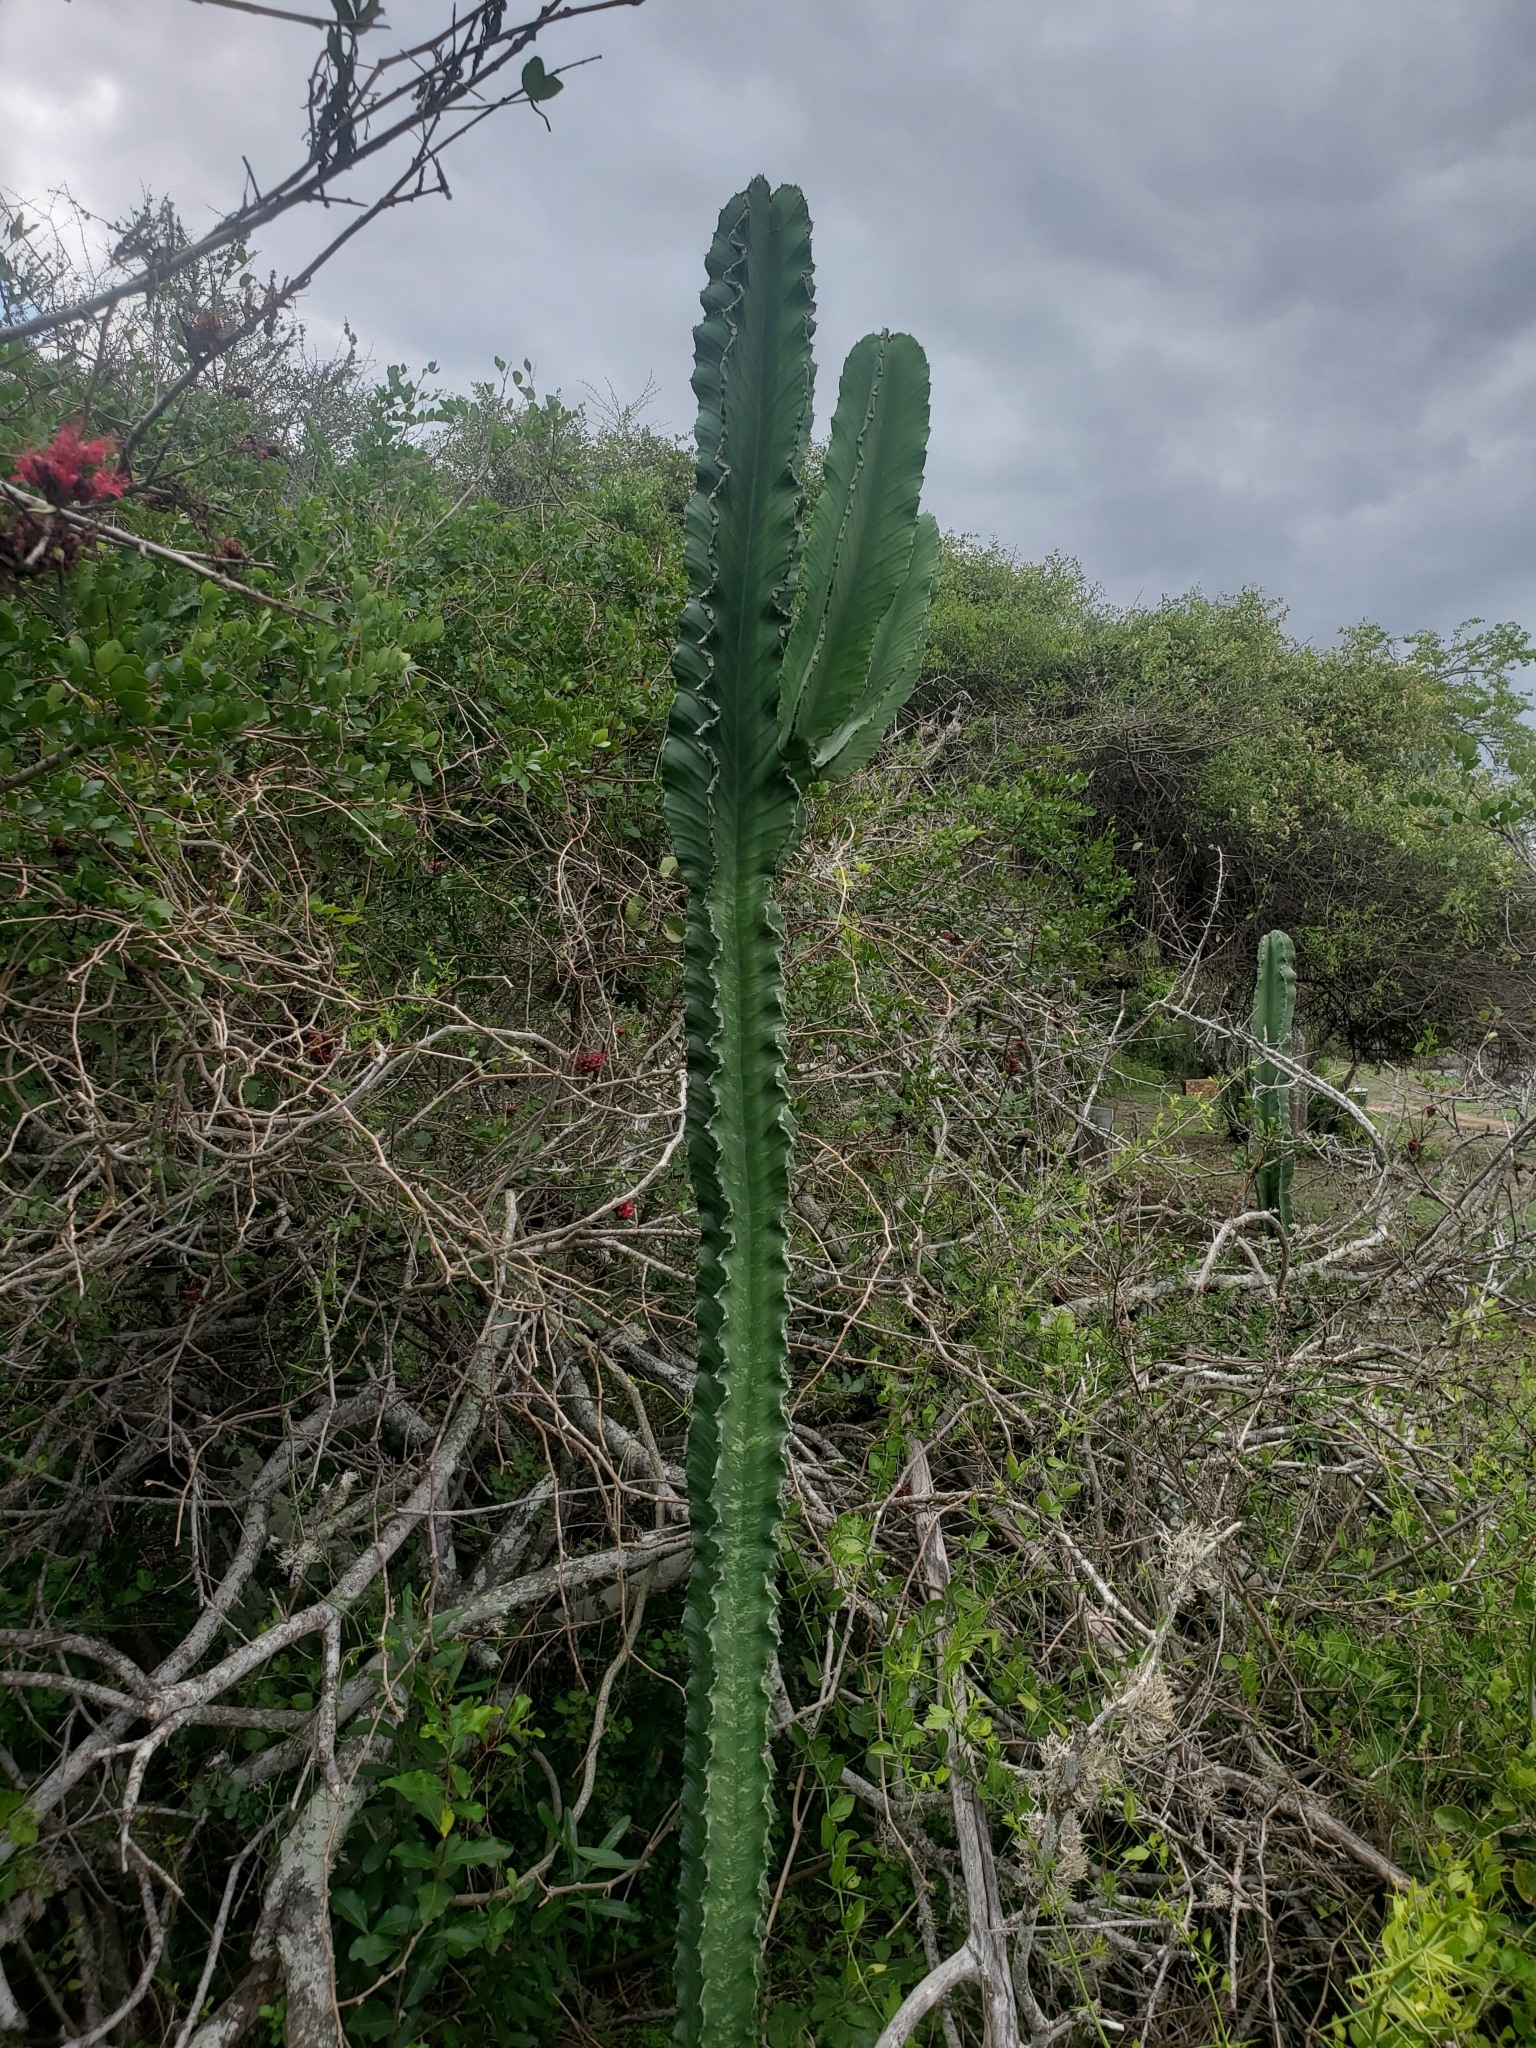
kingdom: Plantae
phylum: Tracheophyta
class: Magnoliopsida
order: Malpighiales
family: Euphorbiaceae
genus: Euphorbia
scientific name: Euphorbia ingens
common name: Cactus spurge
